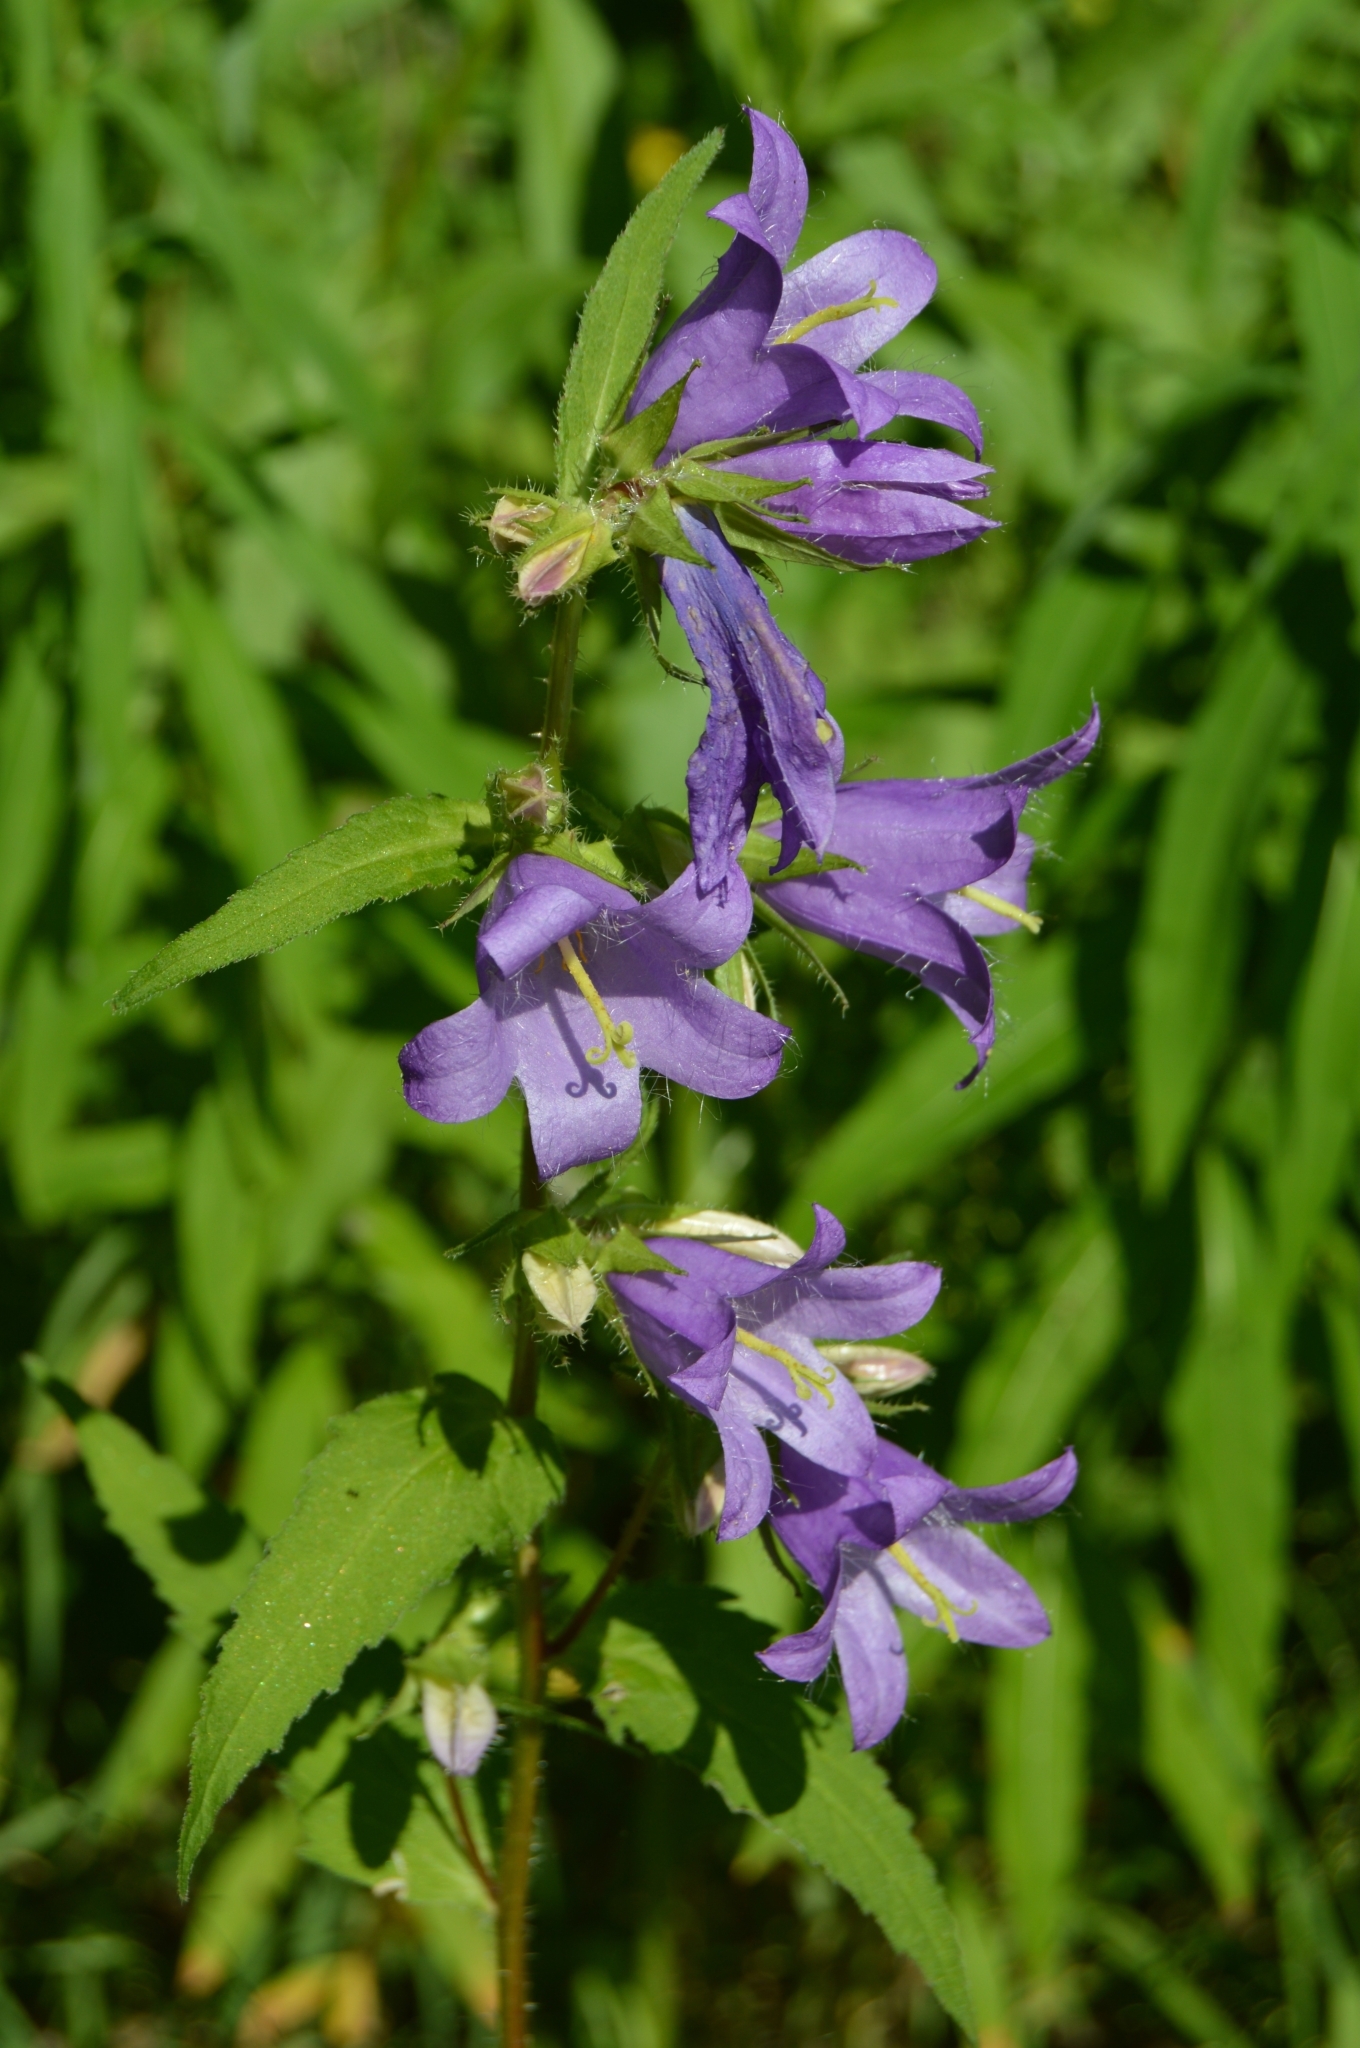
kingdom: Plantae
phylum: Tracheophyta
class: Magnoliopsida
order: Asterales
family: Campanulaceae
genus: Campanula
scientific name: Campanula trachelium
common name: Nettle-leaved bellflower
